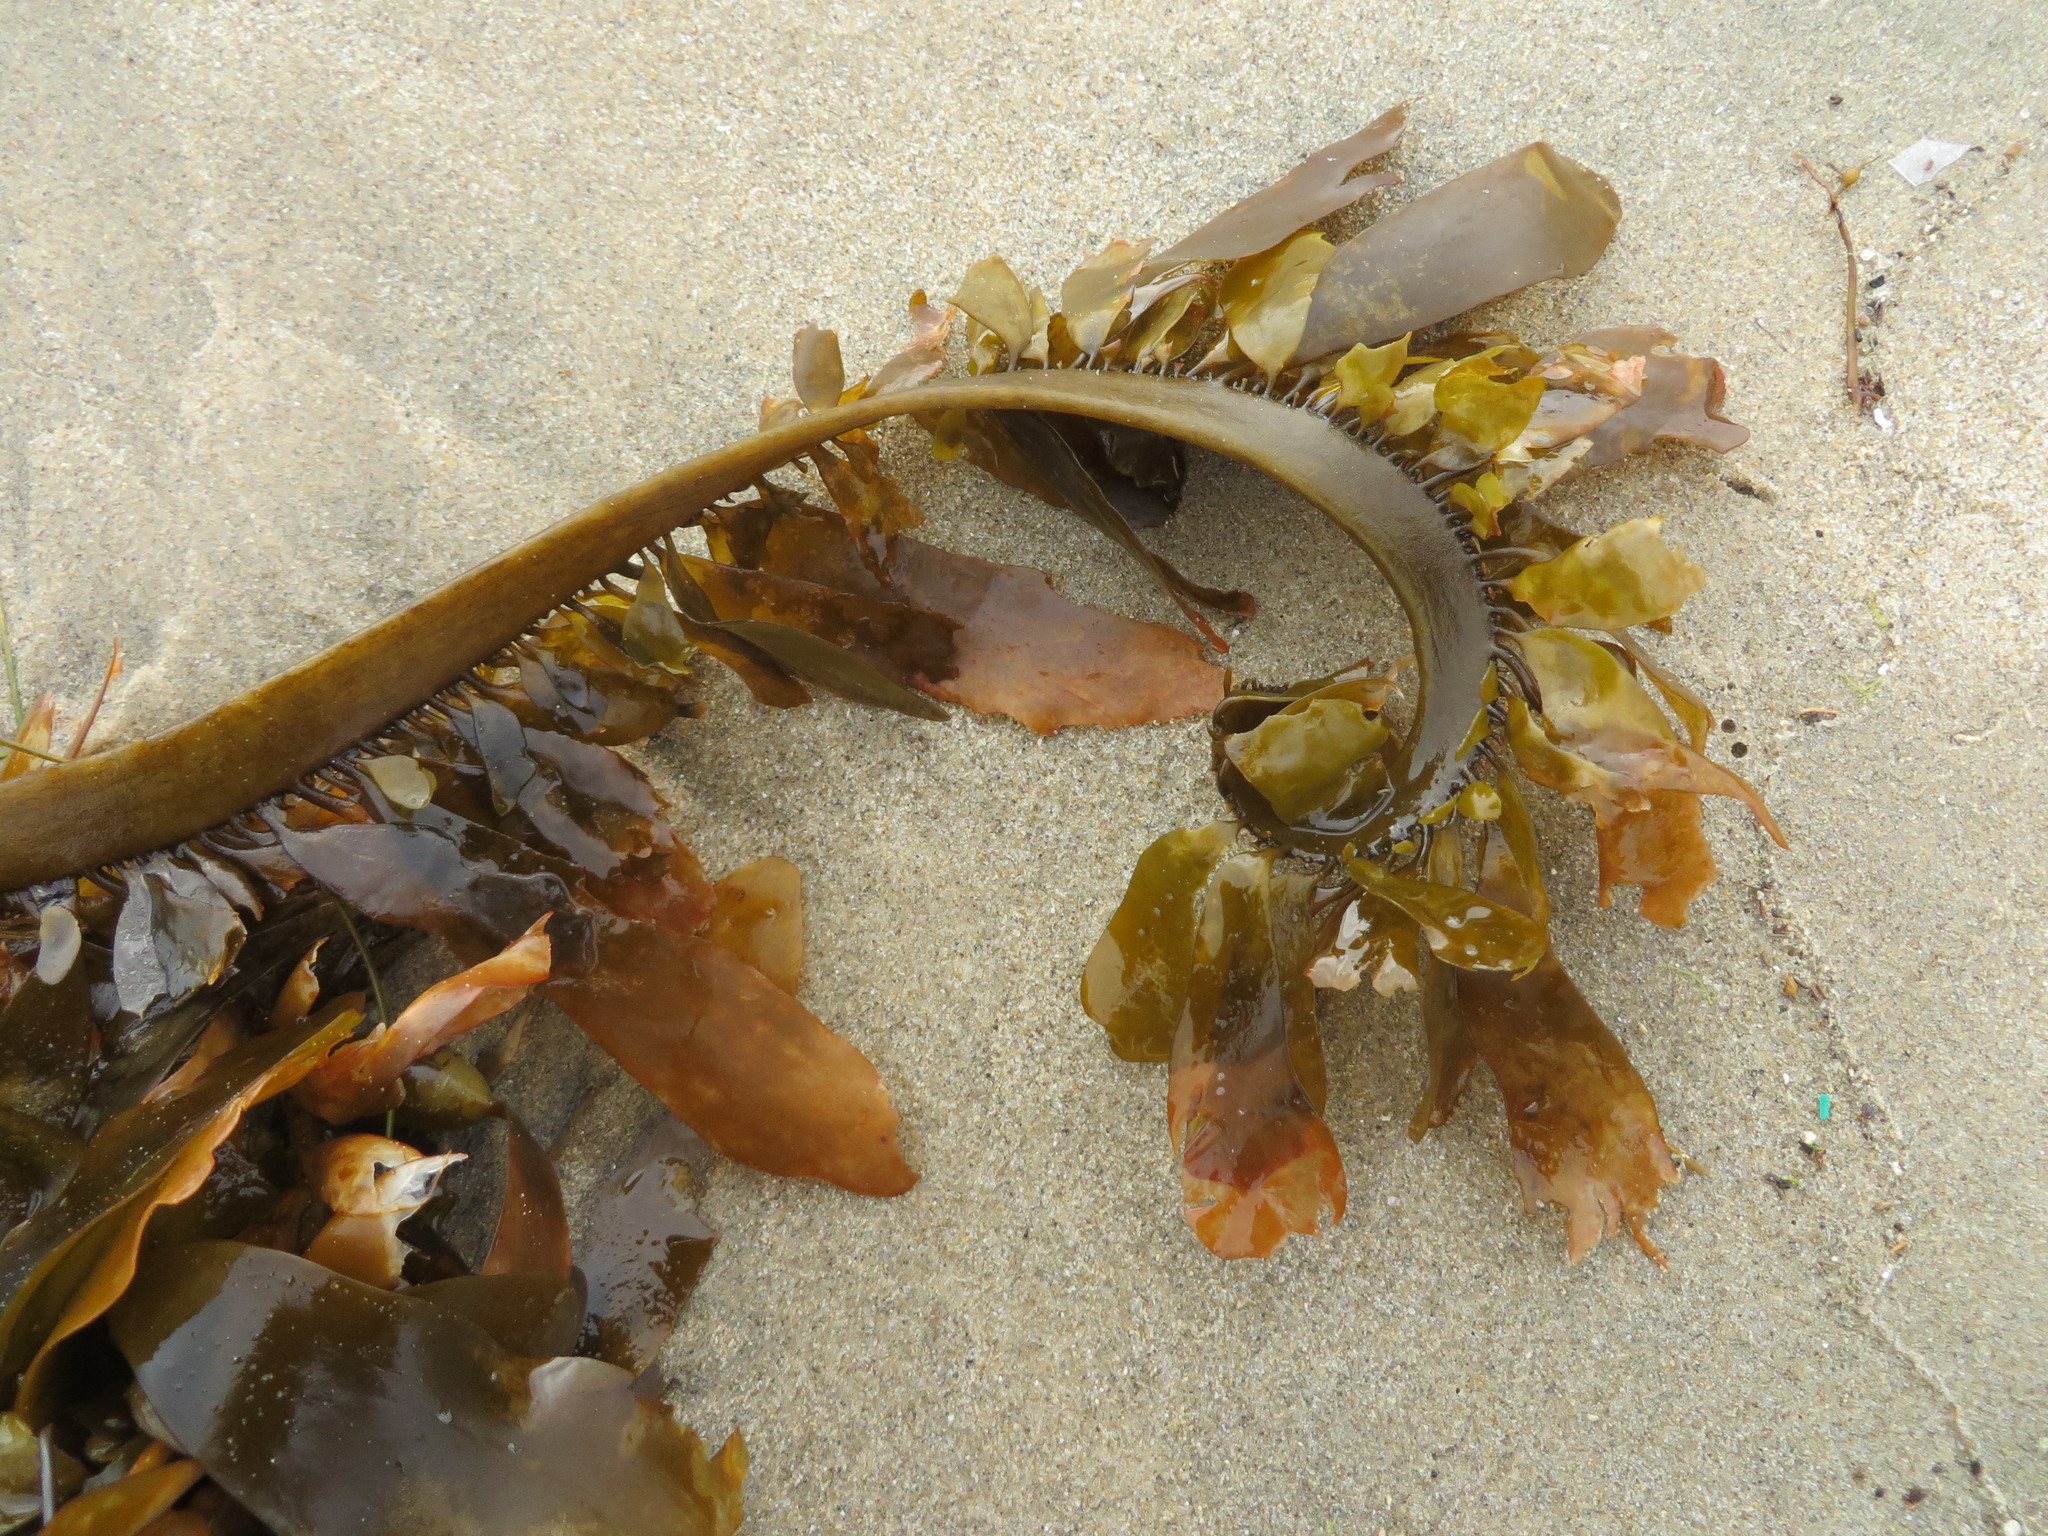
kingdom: Chromista
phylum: Ochrophyta
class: Phaeophyceae
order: Laminariales
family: Lessoniaceae
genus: Egregia
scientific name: Egregia menziesii
